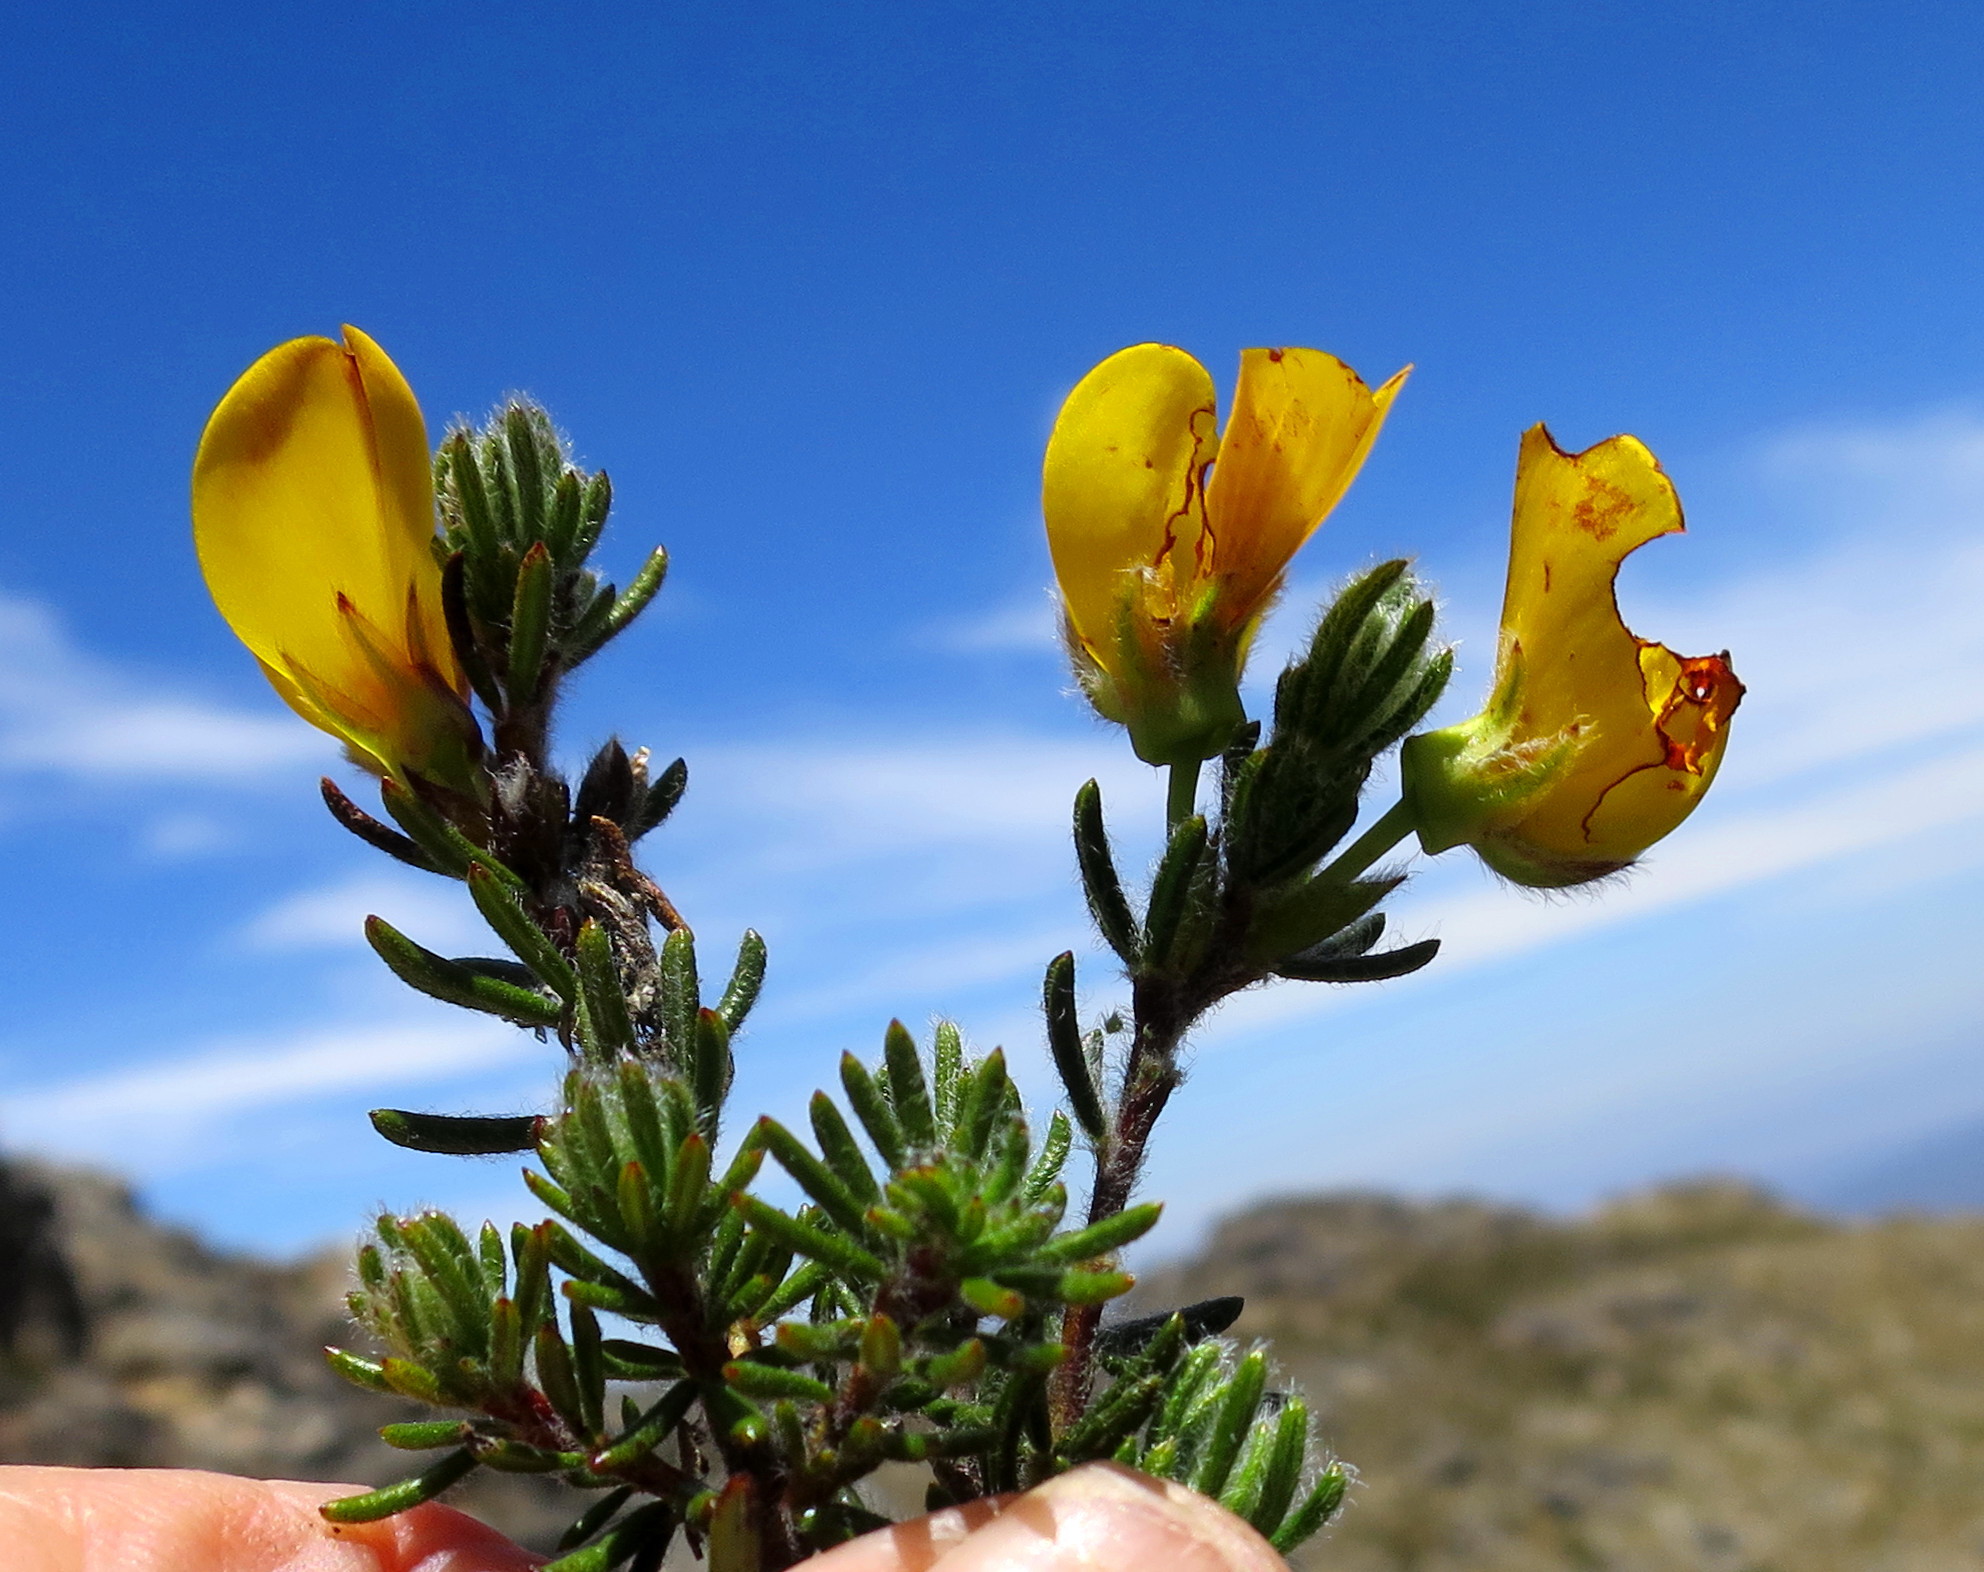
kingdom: Plantae
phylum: Tracheophyta
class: Magnoliopsida
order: Fabales
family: Fabaceae
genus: Cyclopia
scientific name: Cyclopia bolusii
